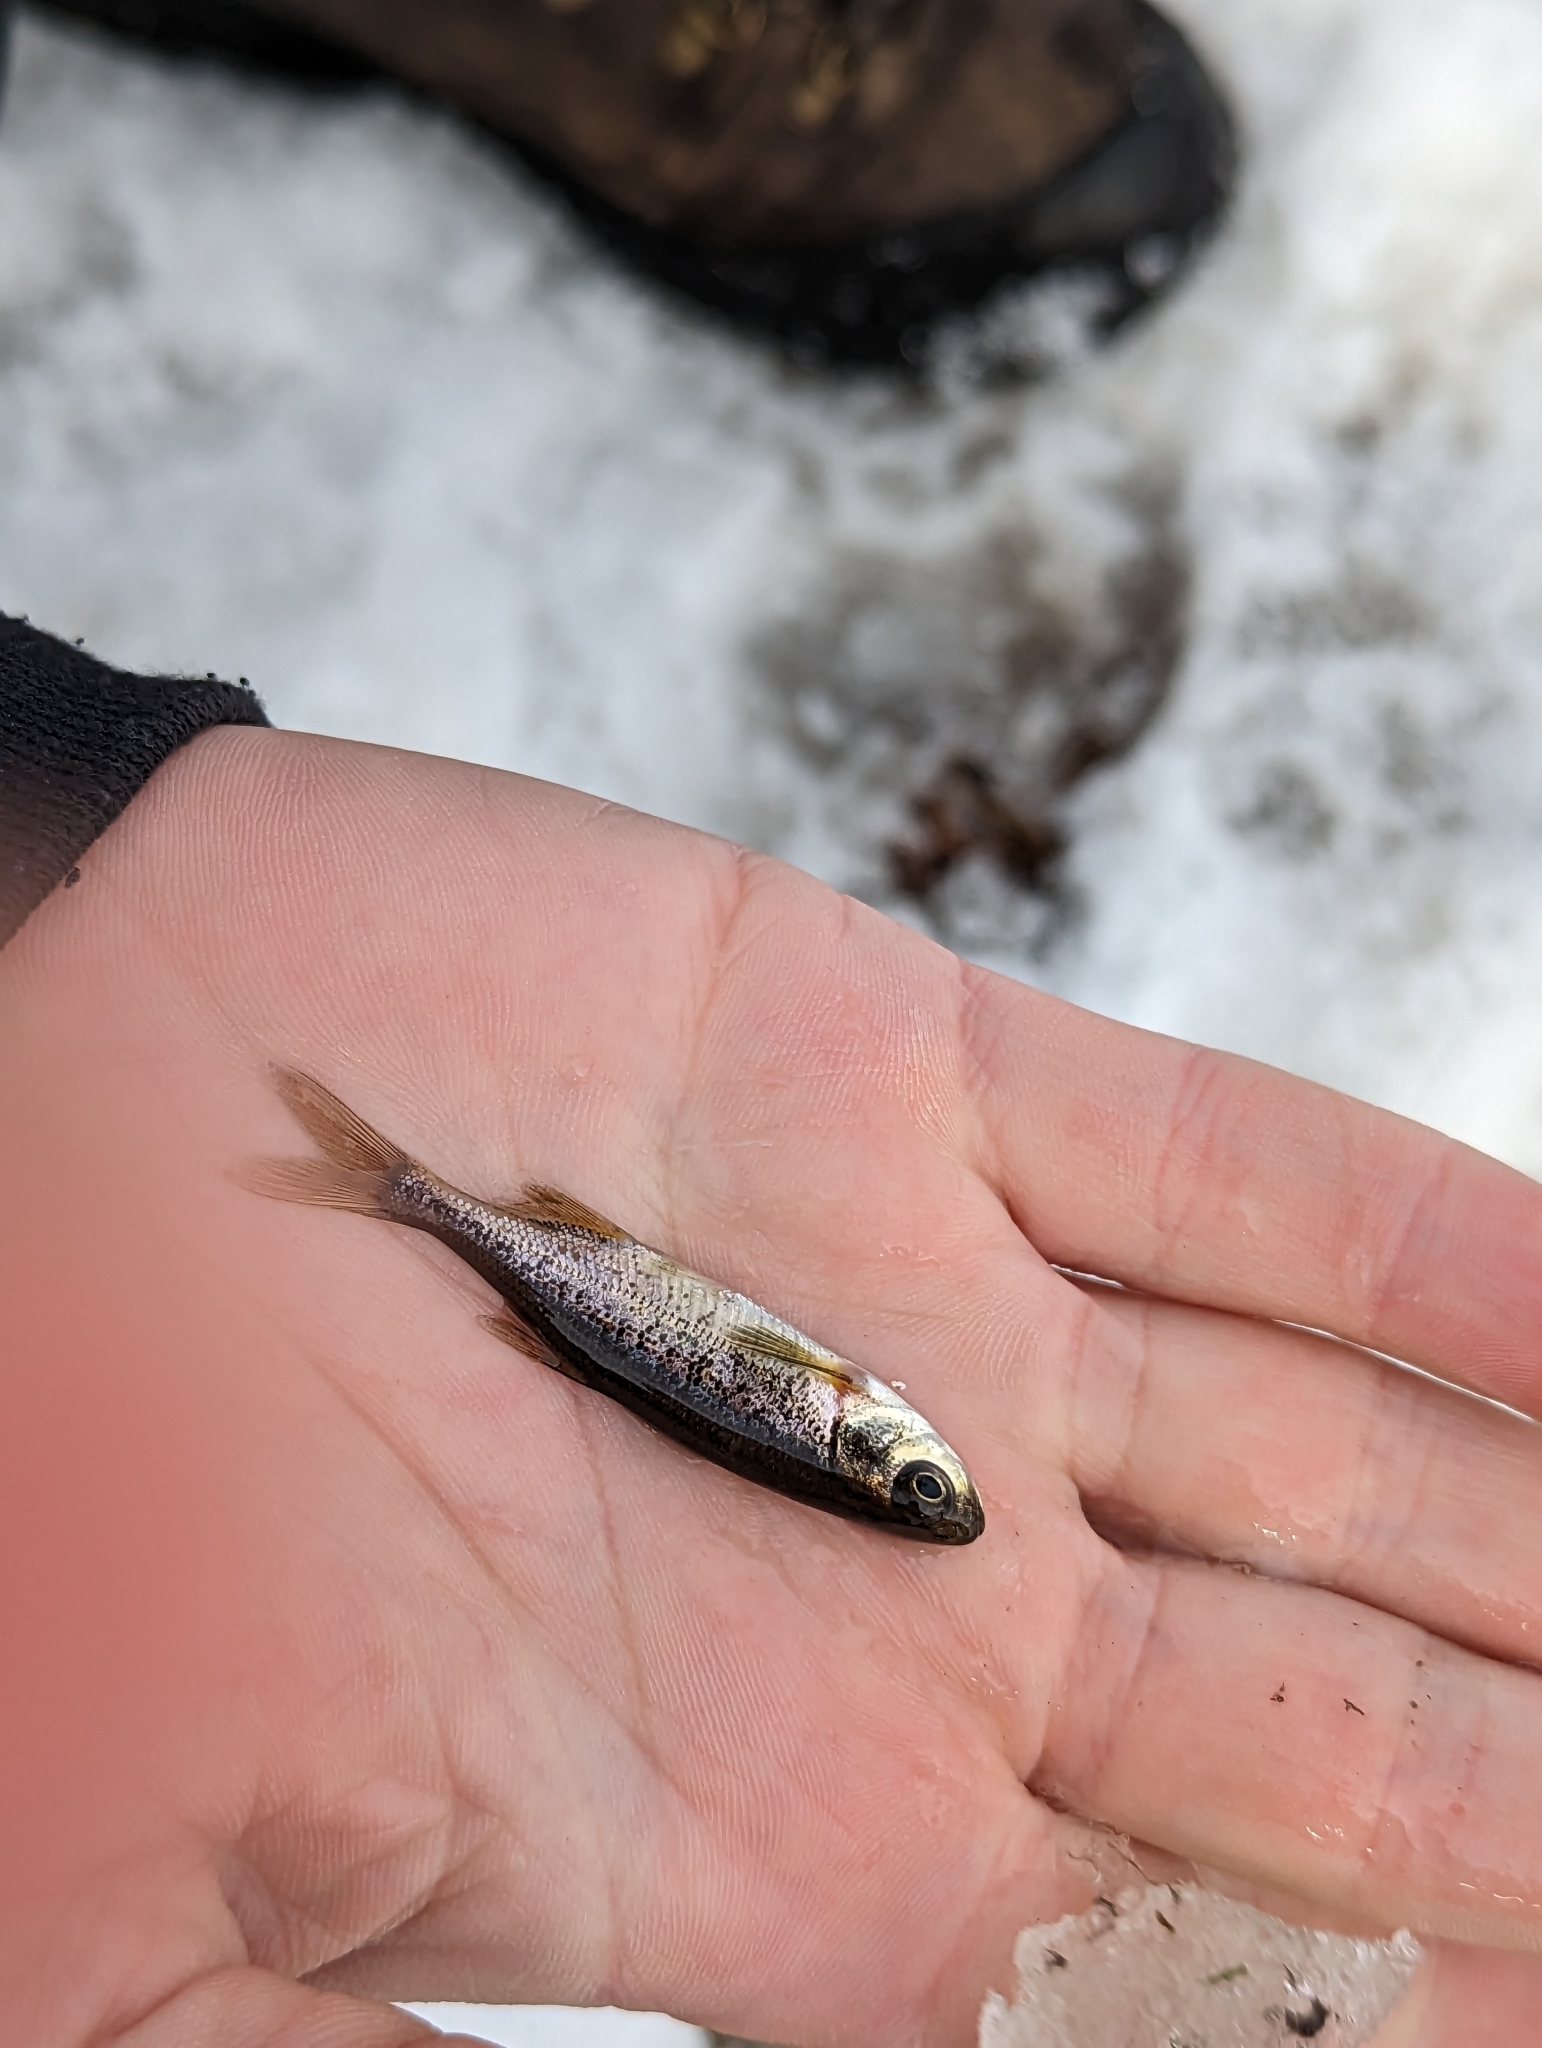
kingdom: Animalia
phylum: Chordata
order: Cypriniformes
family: Cyprinidae
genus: Richardsonius
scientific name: Richardsonius balteatus
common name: Redside shiner
